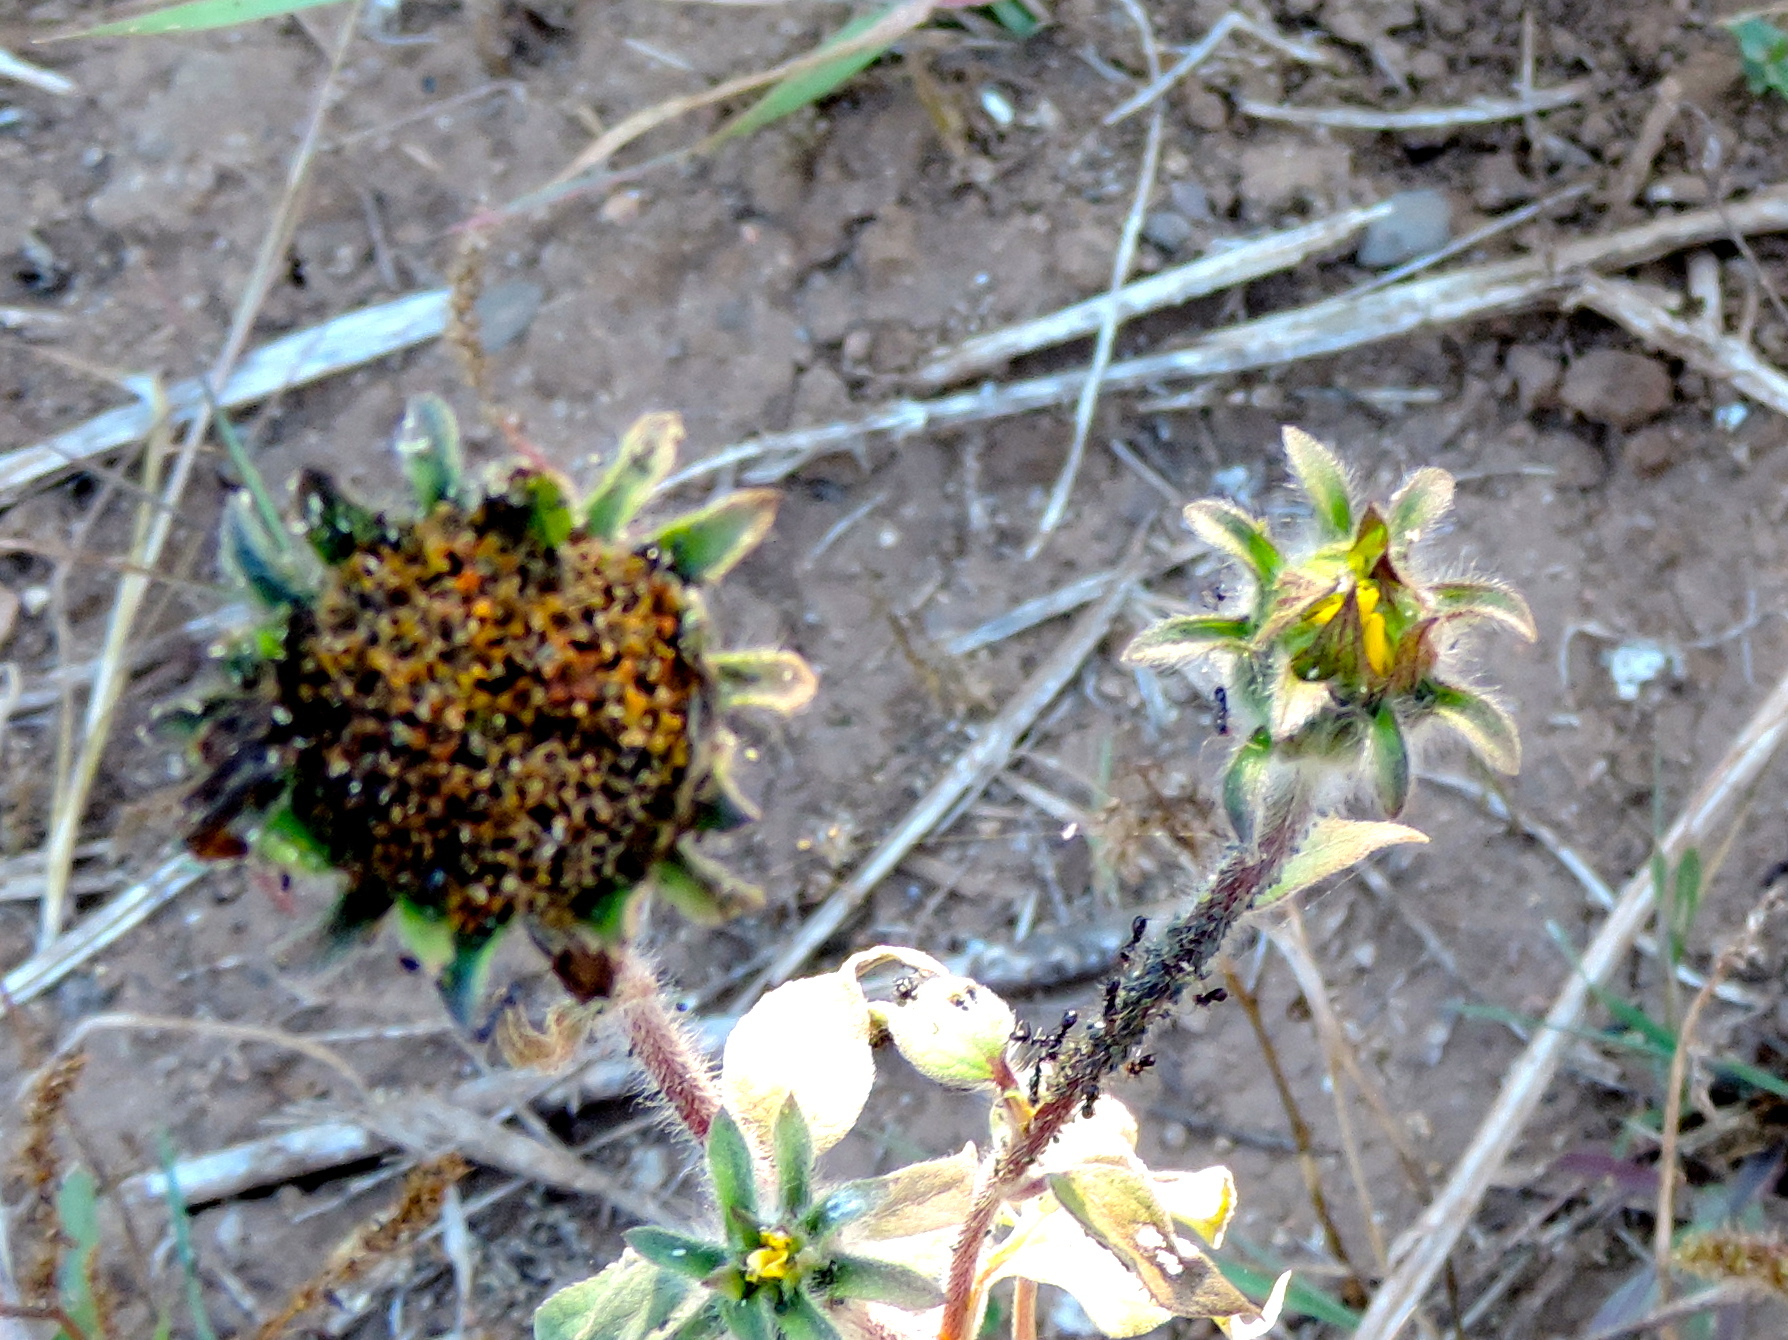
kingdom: Plantae
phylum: Tracheophyta
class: Magnoliopsida
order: Asterales
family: Asteraceae
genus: Tithonia
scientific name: Tithonia tubaeformis
